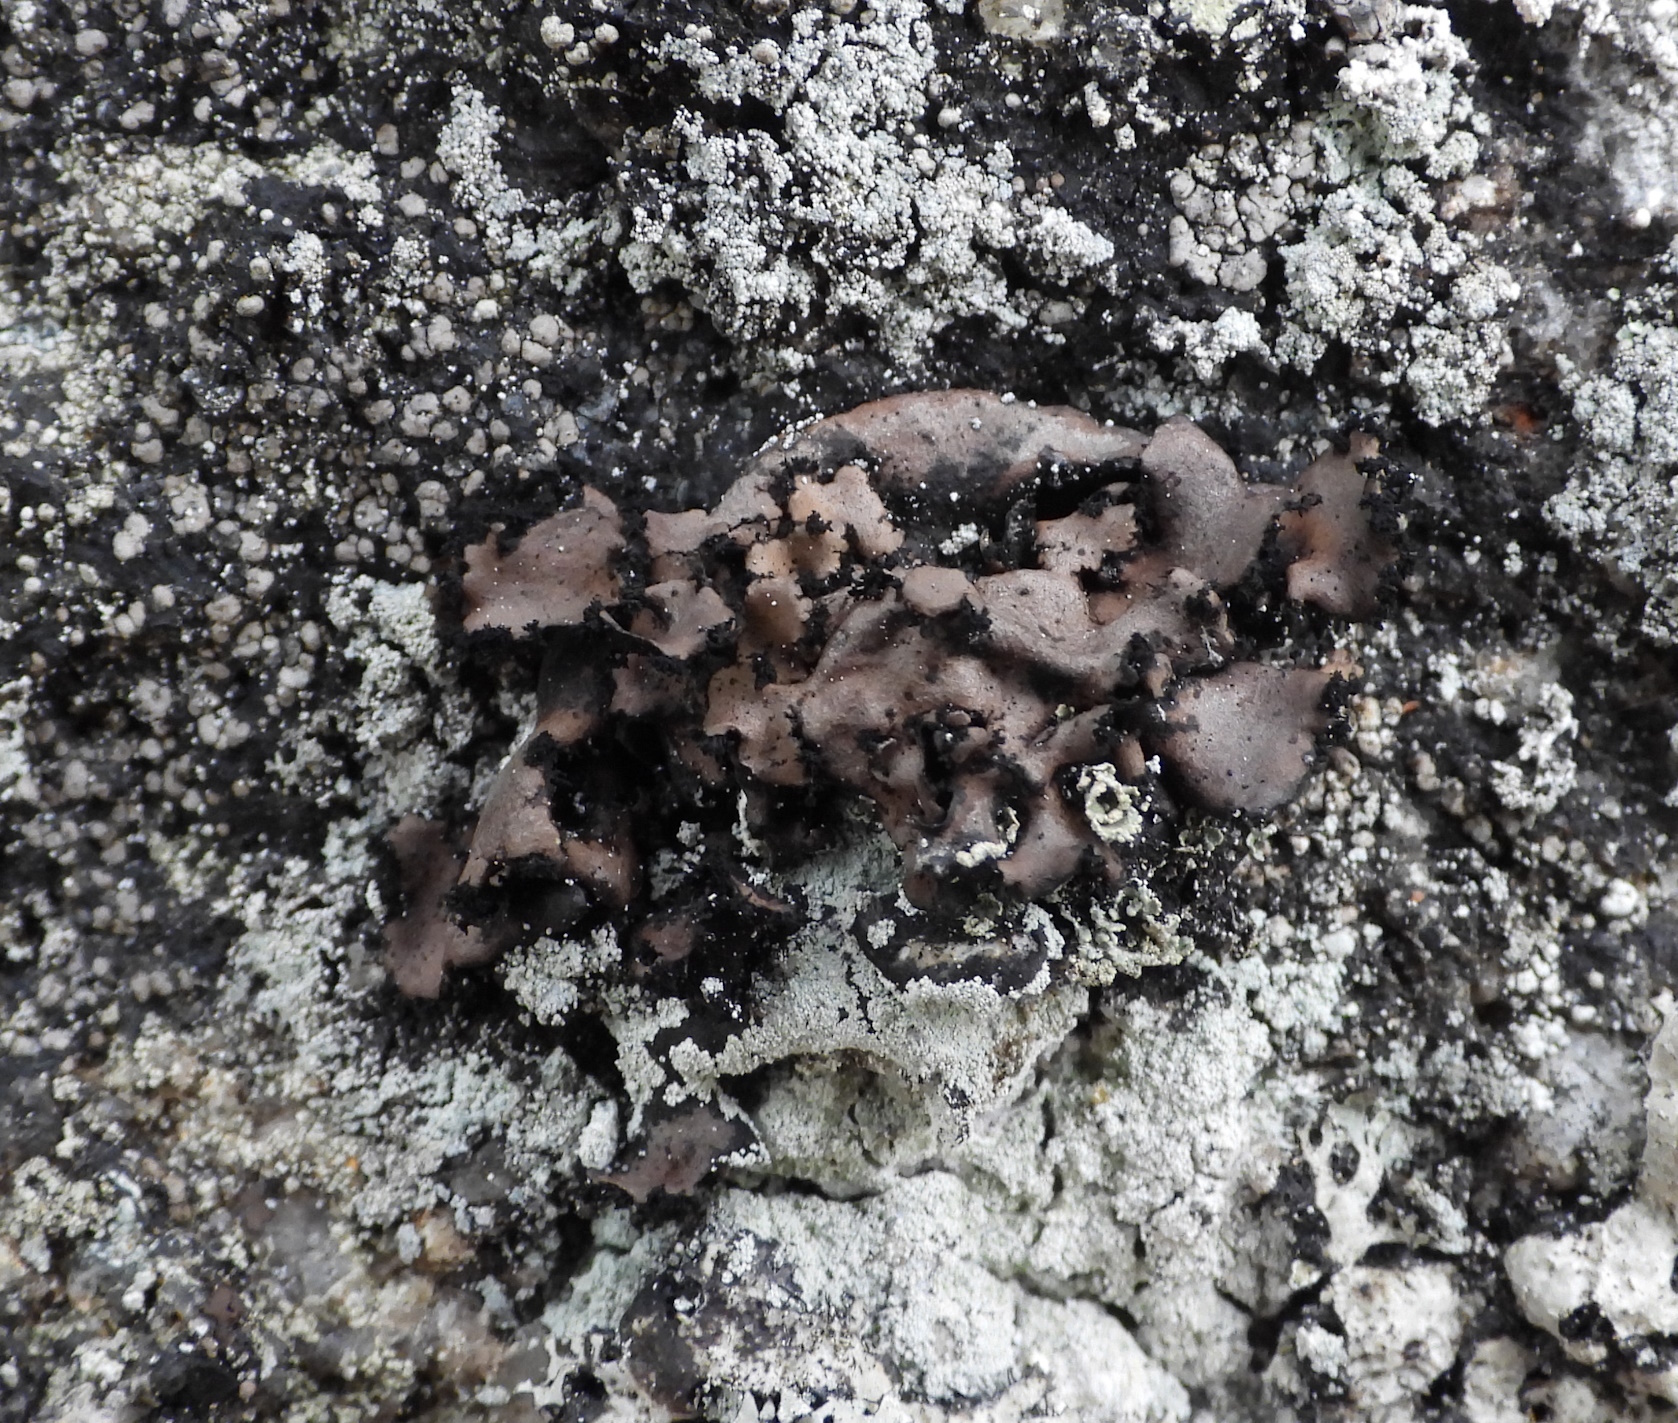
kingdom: Fungi
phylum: Ascomycota
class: Lecanoromycetes
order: Umbilicariales
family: Umbilicariaceae
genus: Umbilicaria
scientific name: Umbilicaria polyrrhiza
